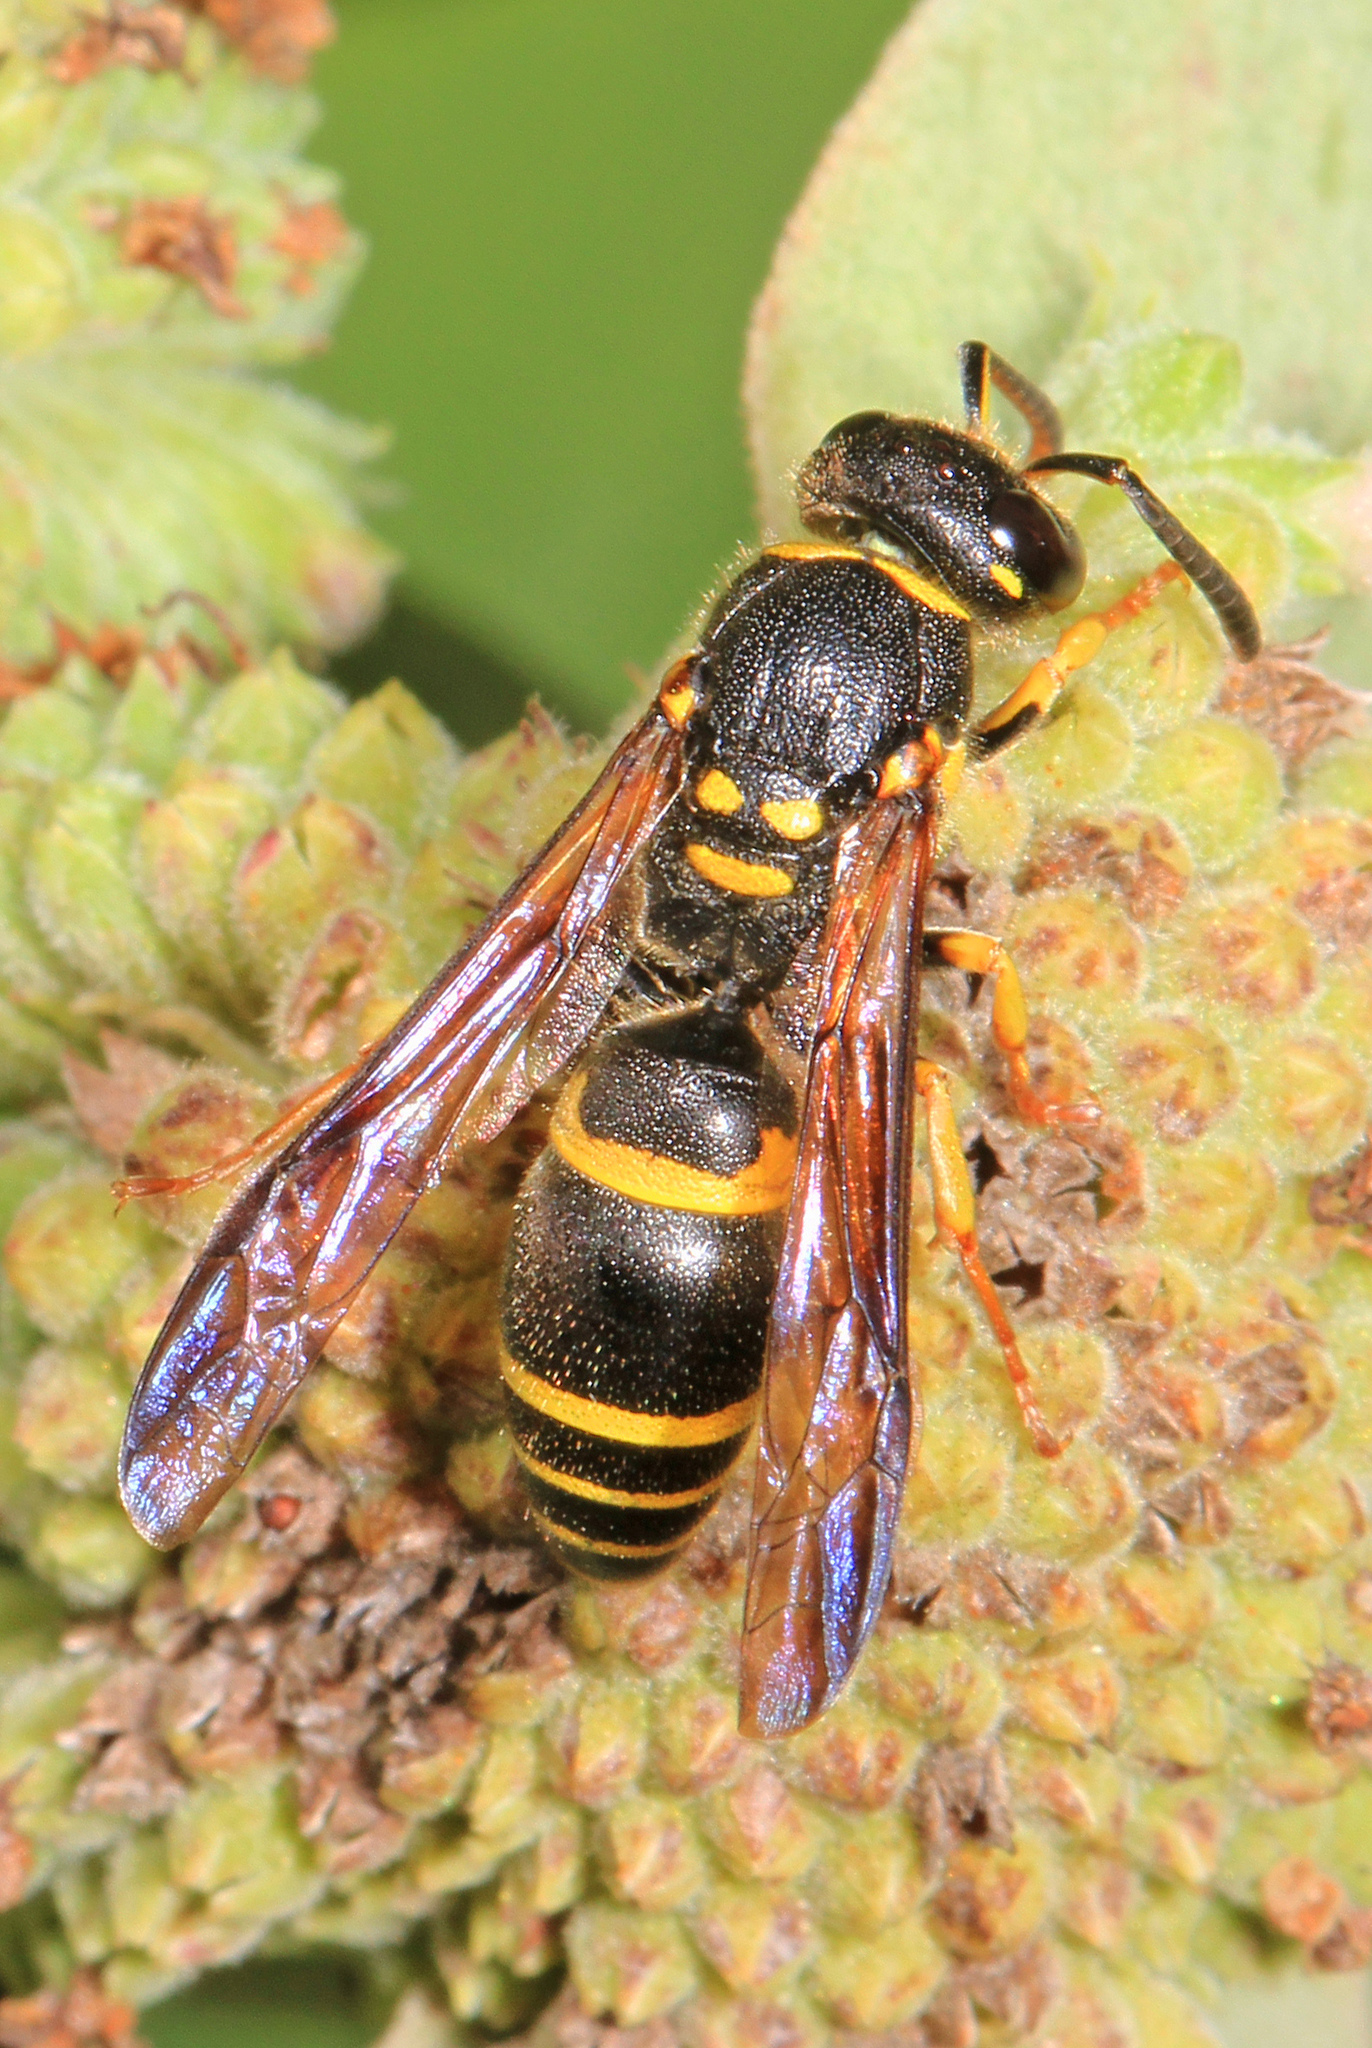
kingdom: Animalia
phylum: Arthropoda
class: Insecta
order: Hymenoptera
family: Vespidae
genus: Ancistrocerus
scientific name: Ancistrocerus adiabatus
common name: Bramble mason wasp
